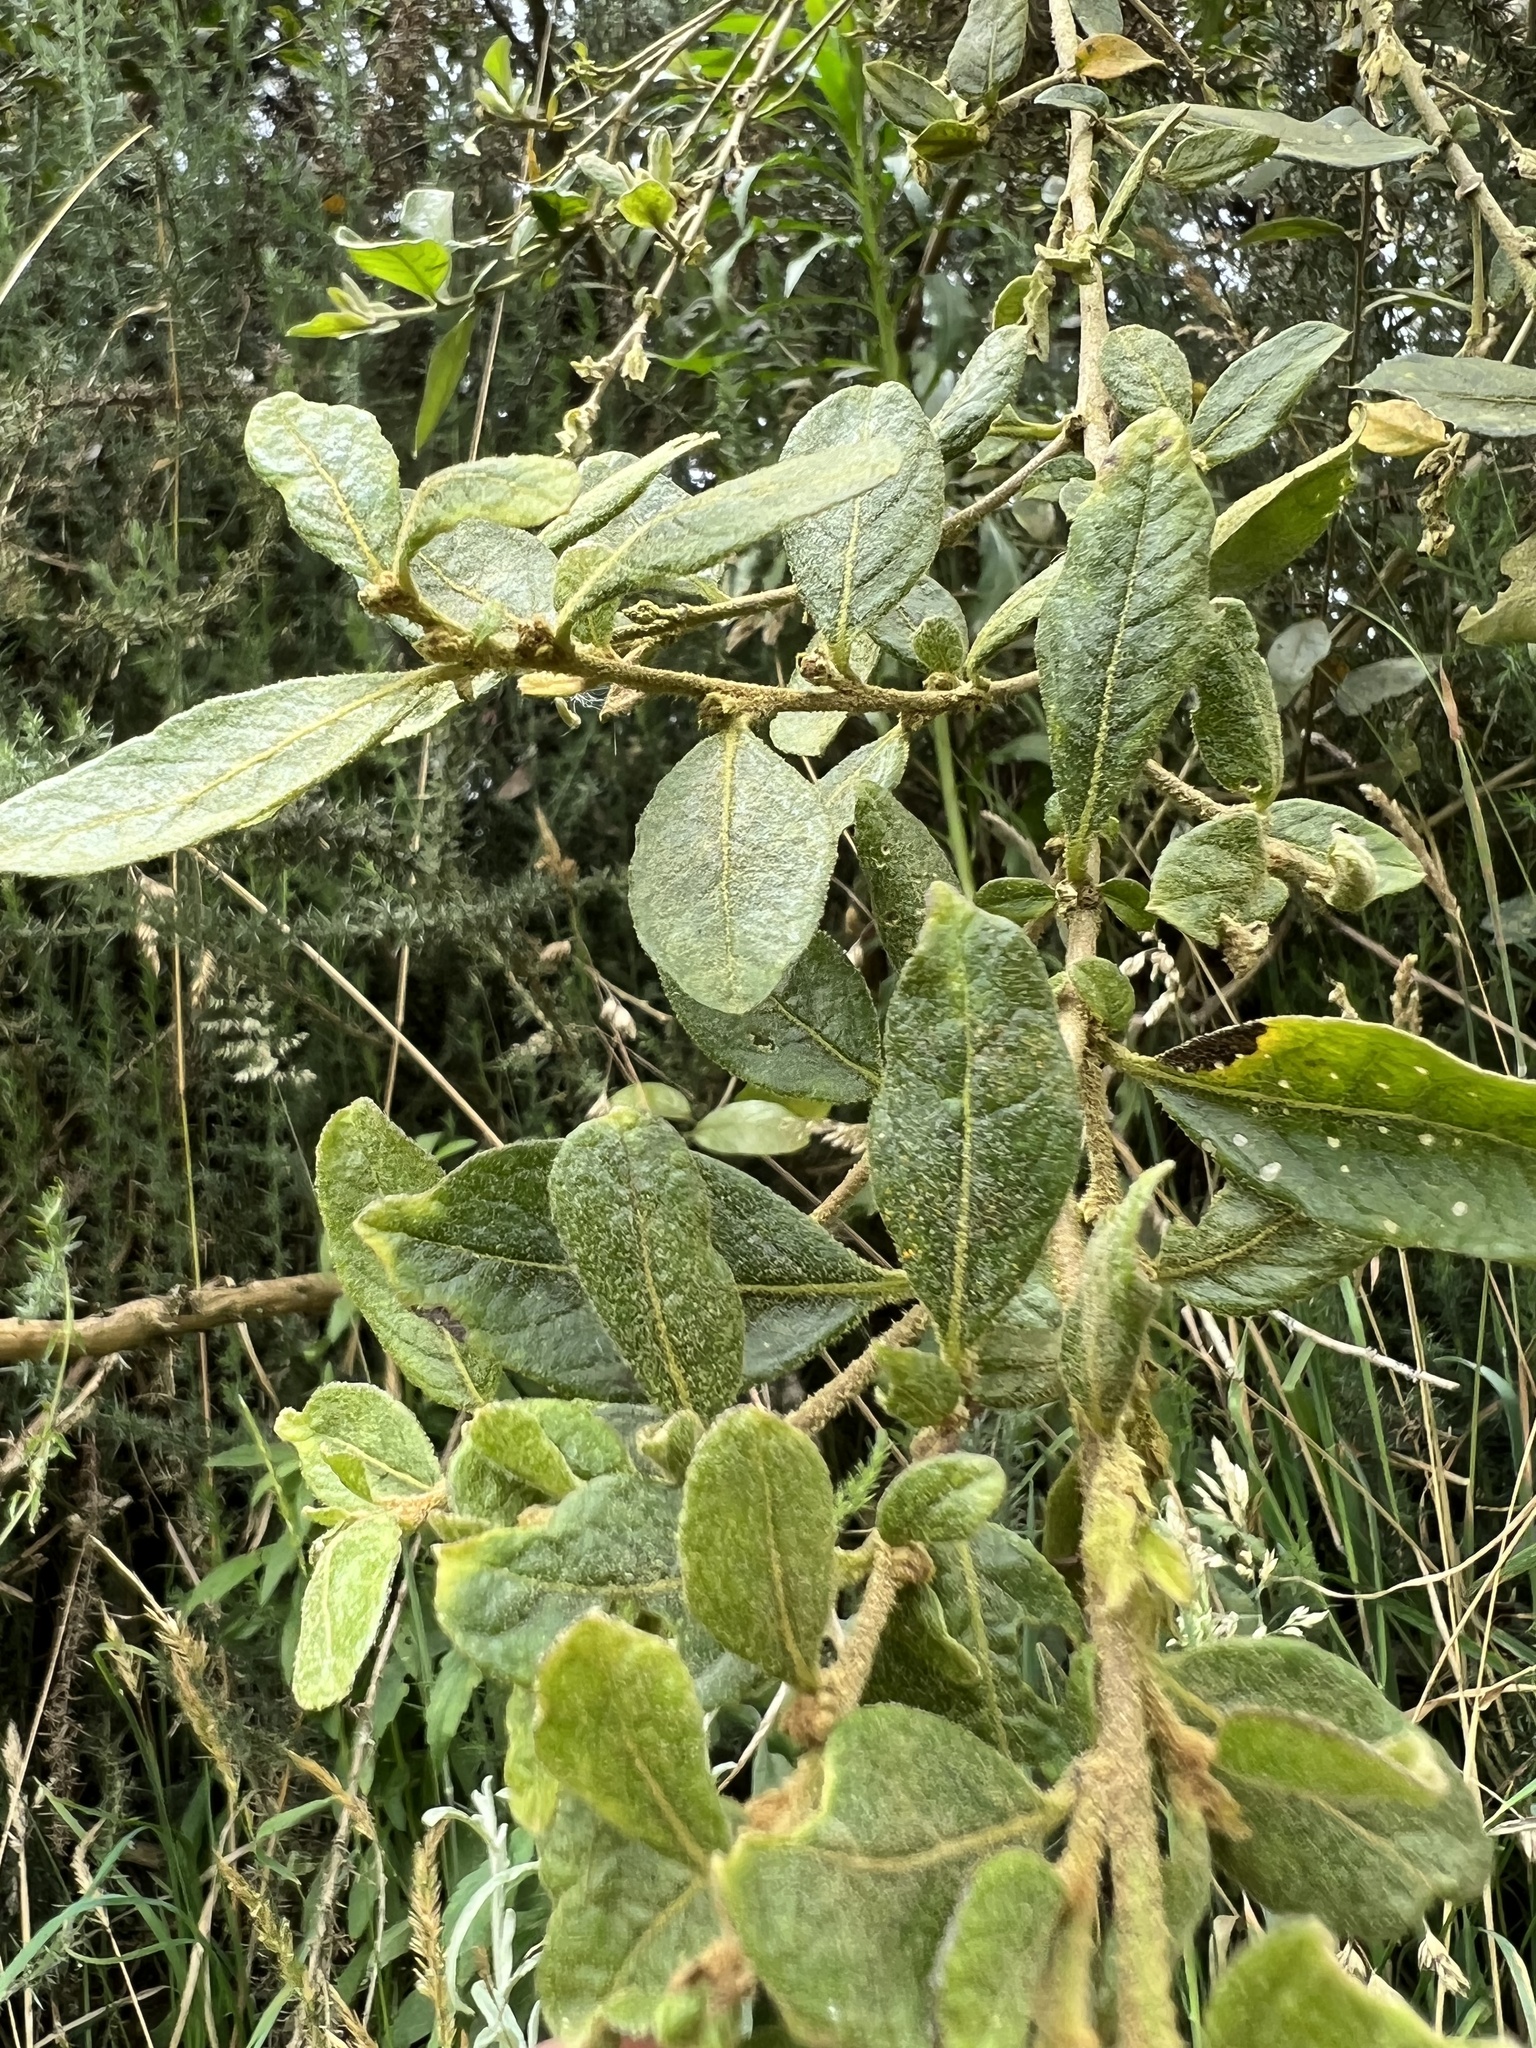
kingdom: Plantae
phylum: Tracheophyta
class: Magnoliopsida
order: Solanales
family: Solanaceae
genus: Cestrum
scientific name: Cestrum tomentosum
